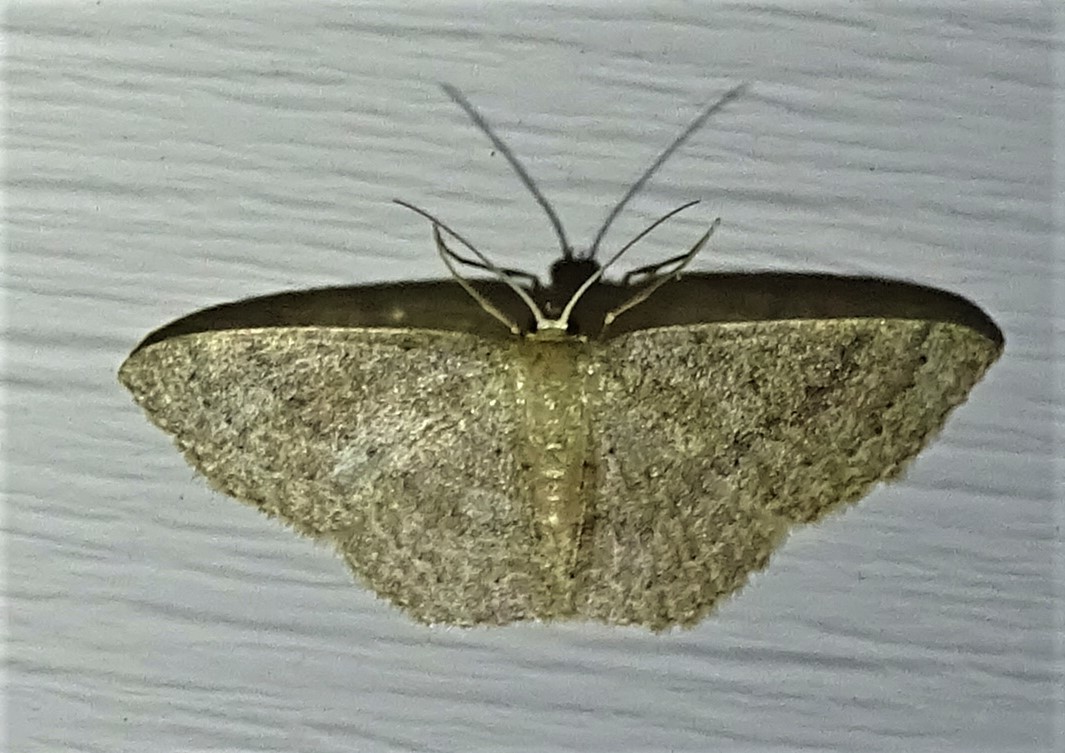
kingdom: Animalia
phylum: Arthropoda
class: Insecta
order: Lepidoptera
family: Geometridae
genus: Pleuroprucha
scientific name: Pleuroprucha insulsaria
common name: Common tan wave
